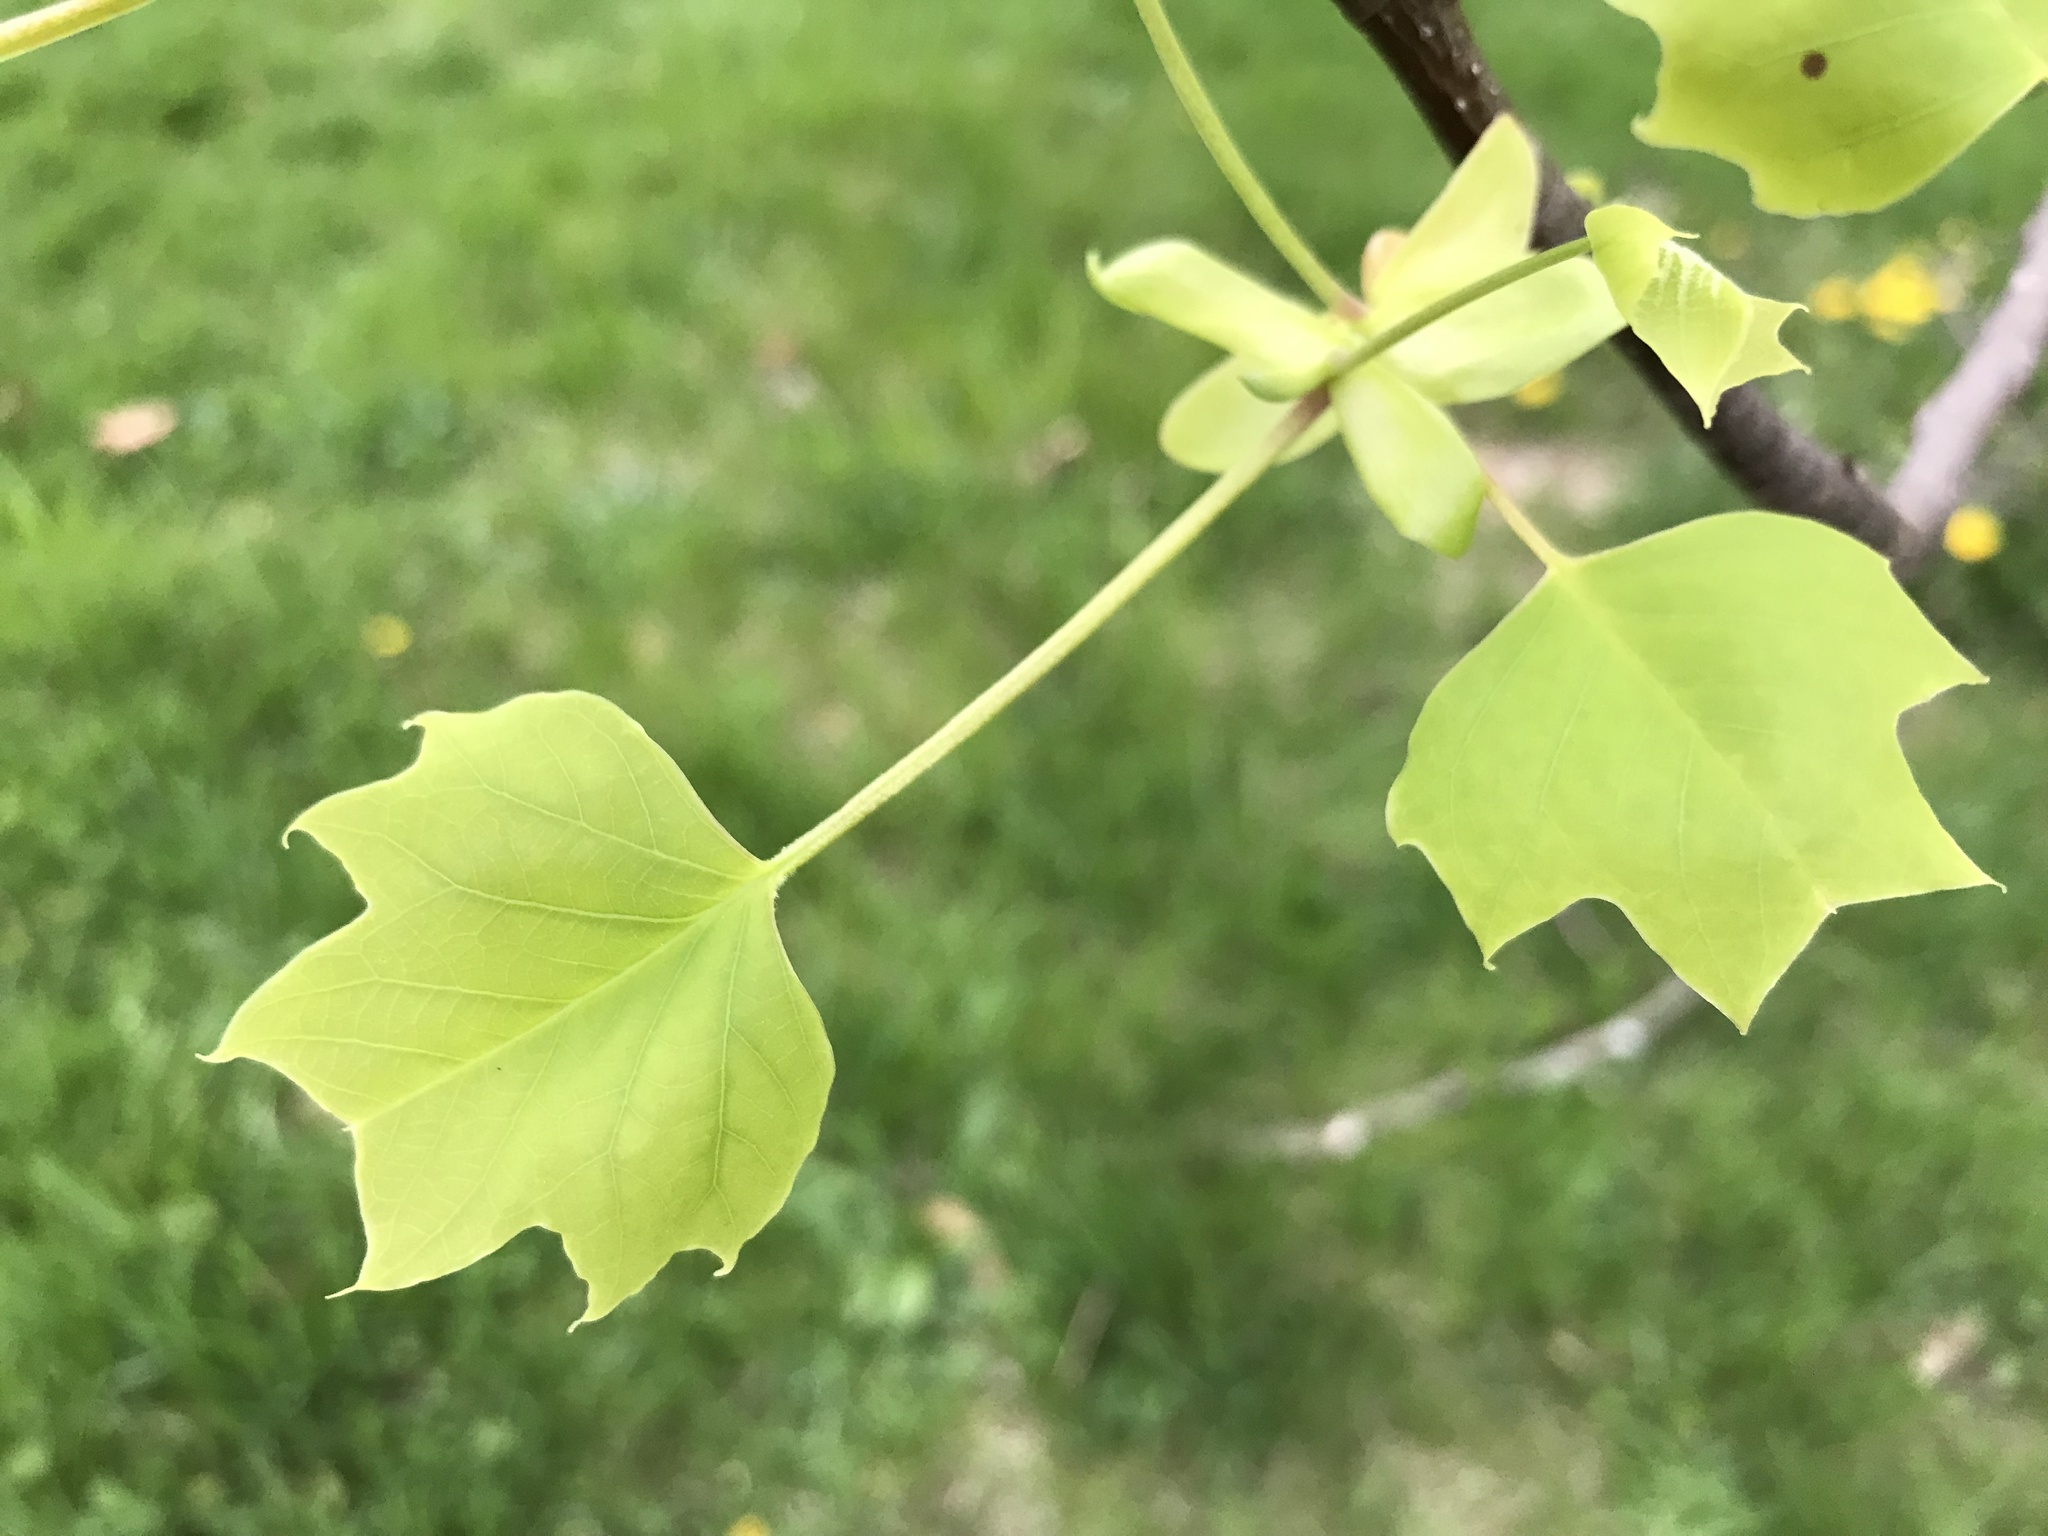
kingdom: Plantae
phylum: Tracheophyta
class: Magnoliopsida
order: Magnoliales
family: Magnoliaceae
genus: Liriodendron
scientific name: Liriodendron tulipifera
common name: Tulip tree
